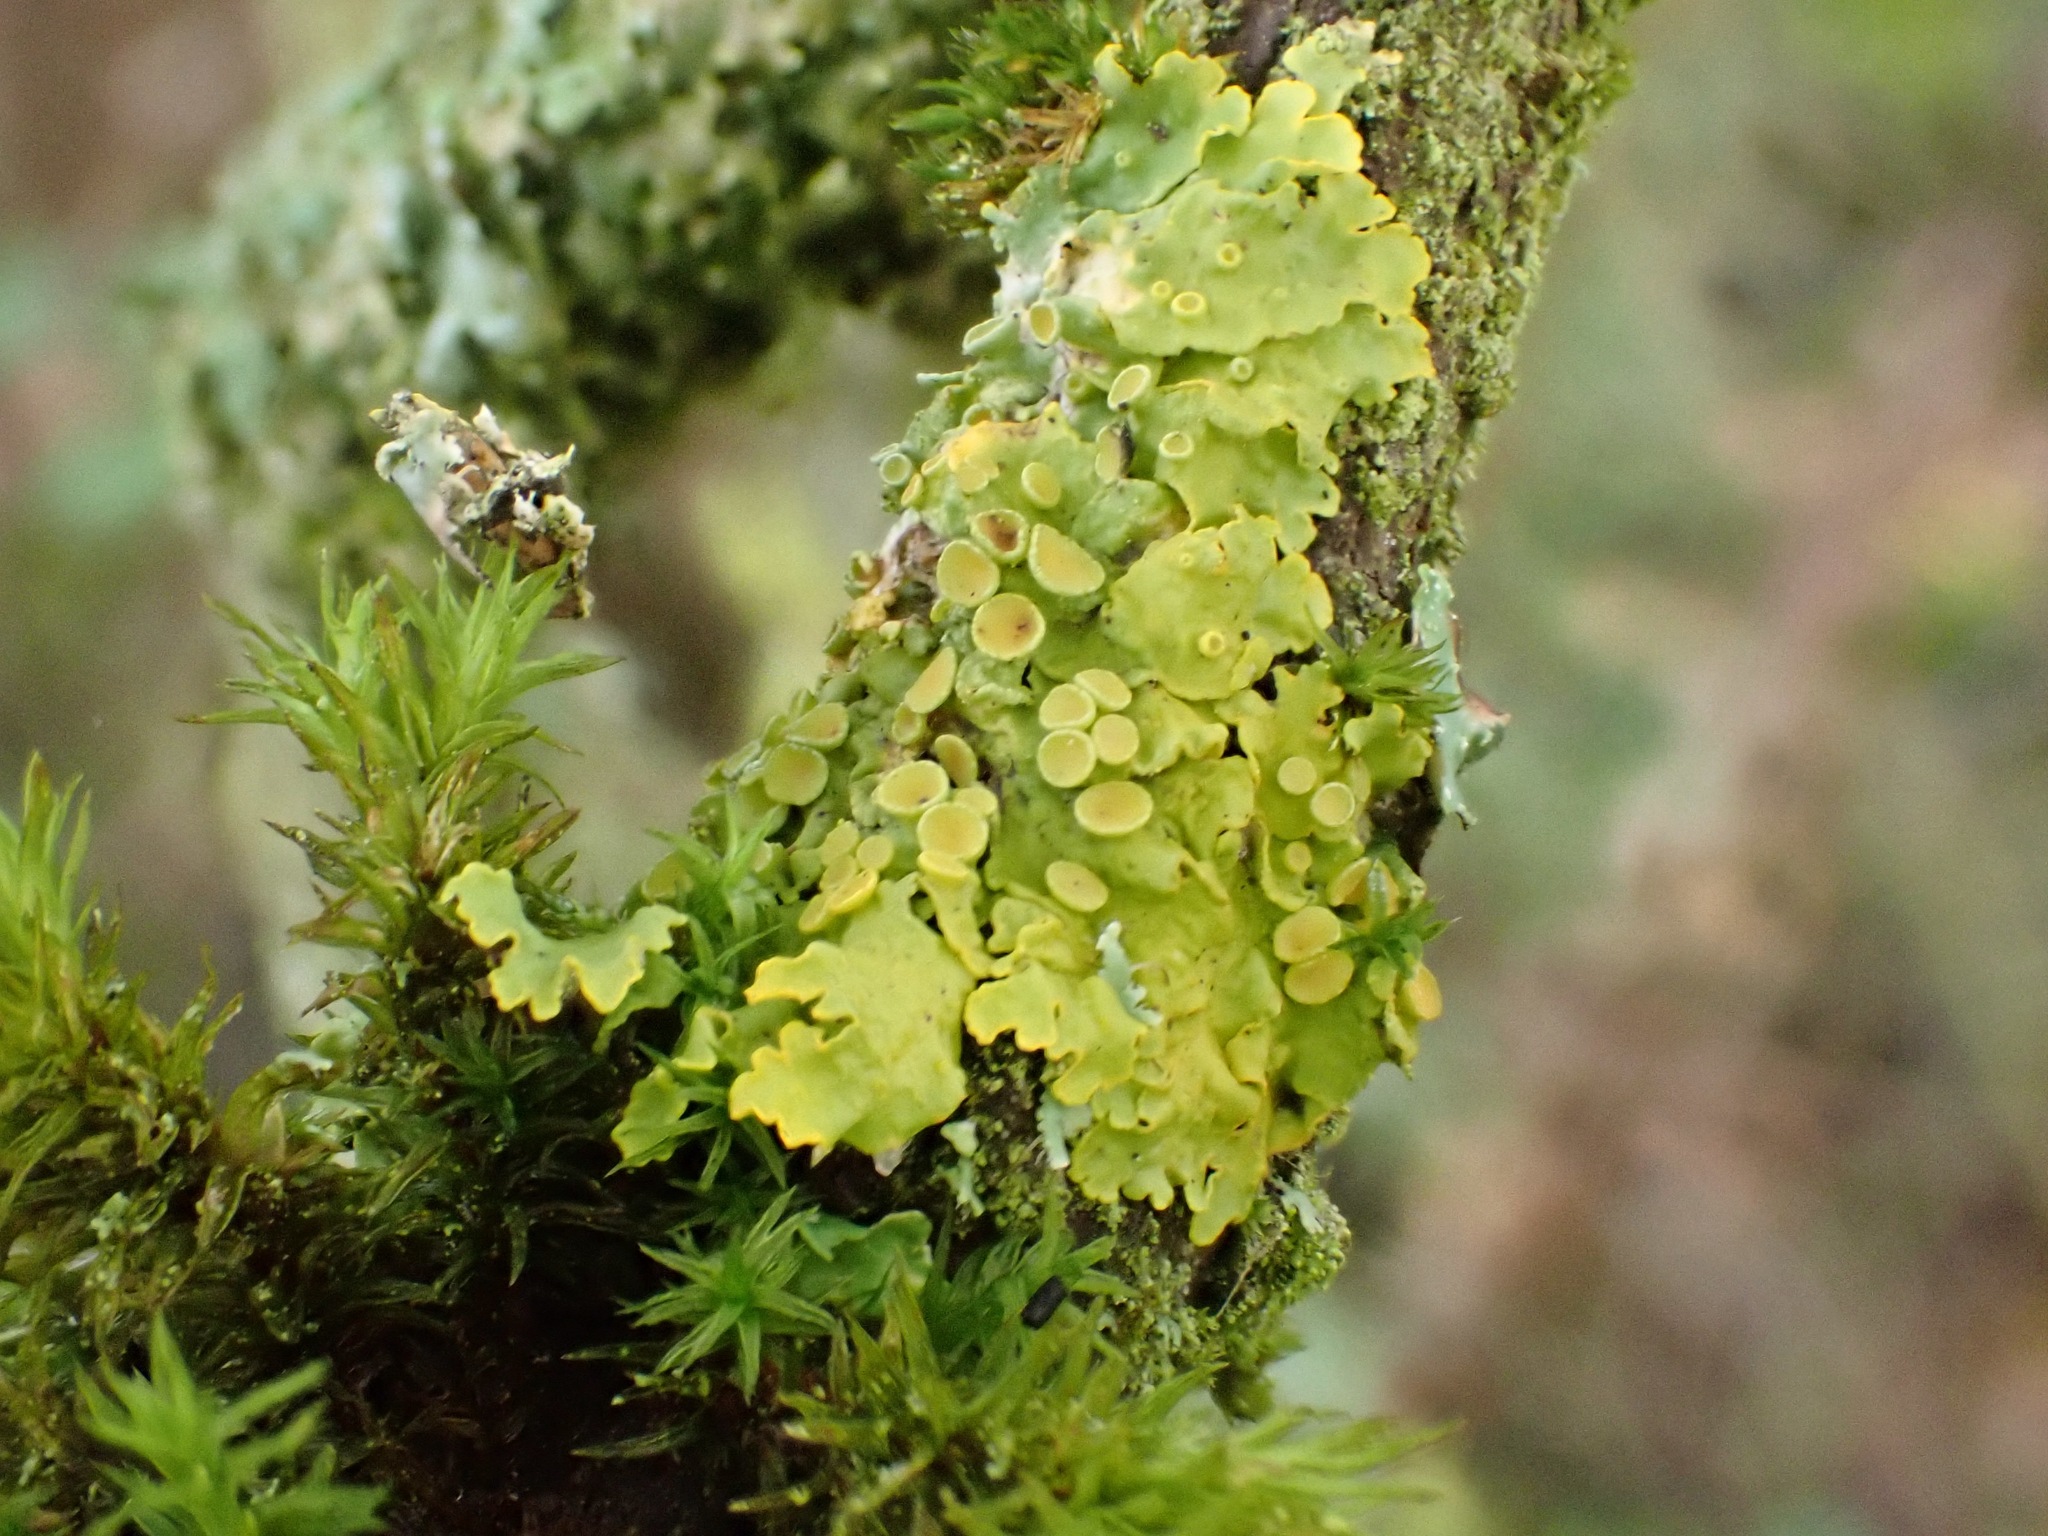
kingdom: Fungi
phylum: Ascomycota
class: Lecanoromycetes
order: Teloschistales
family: Teloschistaceae
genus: Xanthoria
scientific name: Xanthoria parietina
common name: Common orange lichen
